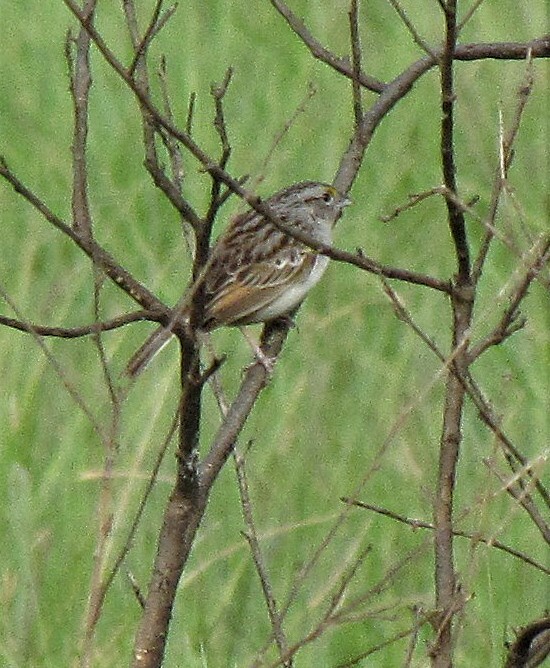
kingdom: Animalia
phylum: Chordata
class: Aves
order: Passeriformes
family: Passerellidae
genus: Ammodramus
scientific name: Ammodramus humeralis
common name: Grassland sparrow
